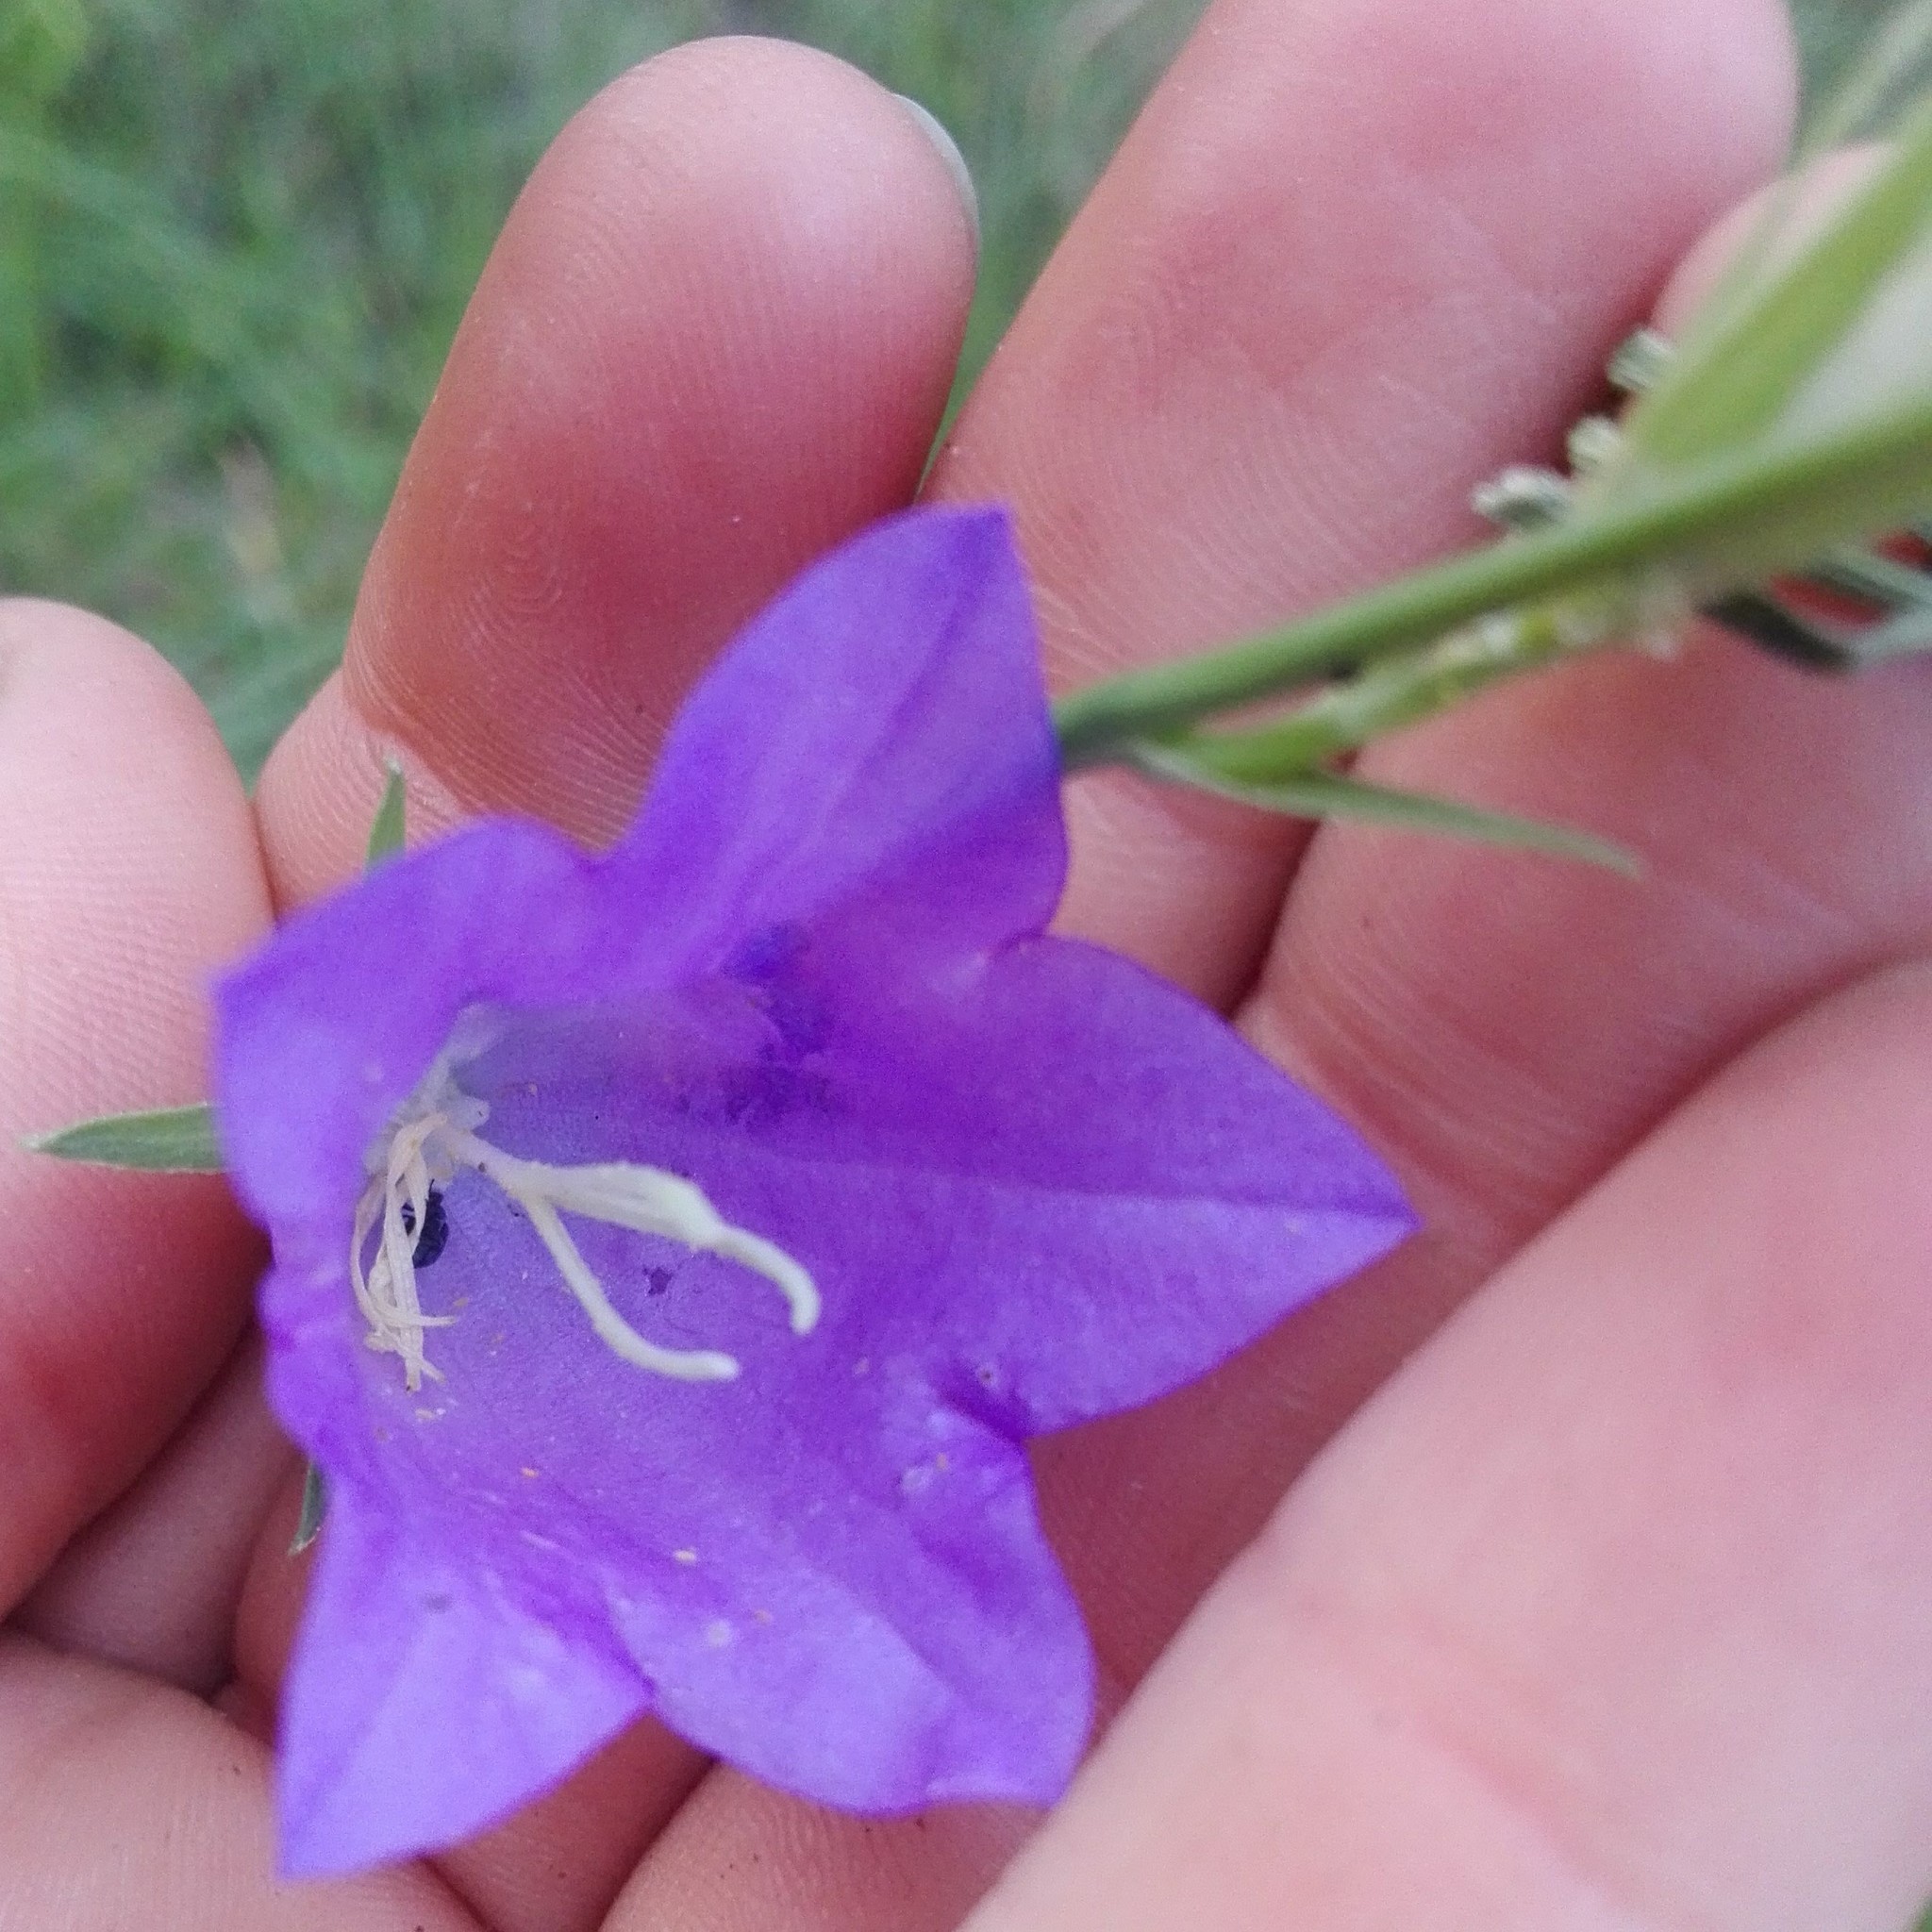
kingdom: Plantae
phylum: Tracheophyta
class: Magnoliopsida
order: Asterales
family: Campanulaceae
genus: Campanula
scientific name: Campanula persicifolia
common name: Peach-leaved bellflower
